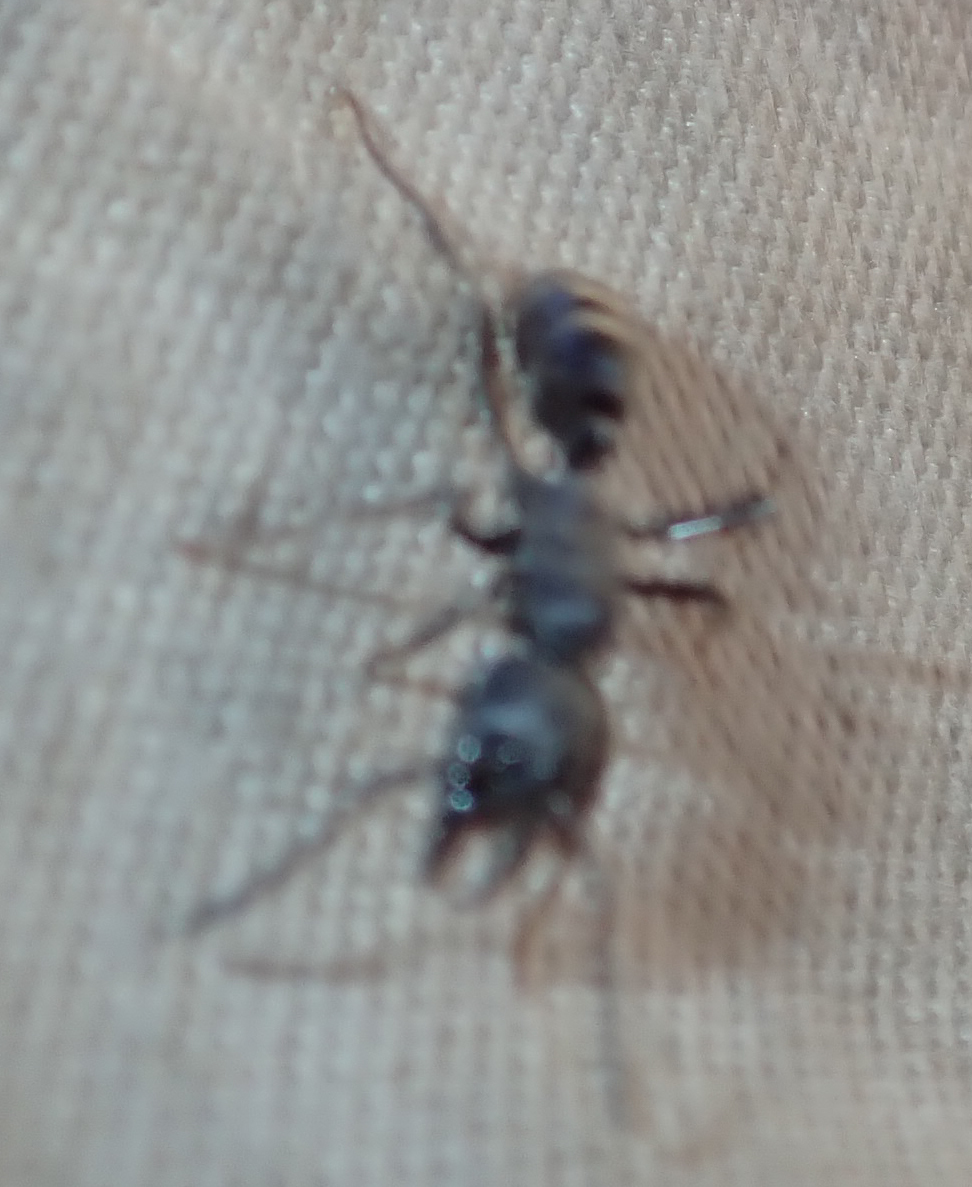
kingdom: Animalia
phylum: Arthropoda
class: Insecta
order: Hymenoptera
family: Formicidae
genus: Paltothyreus
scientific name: Paltothyreus tarsatus
